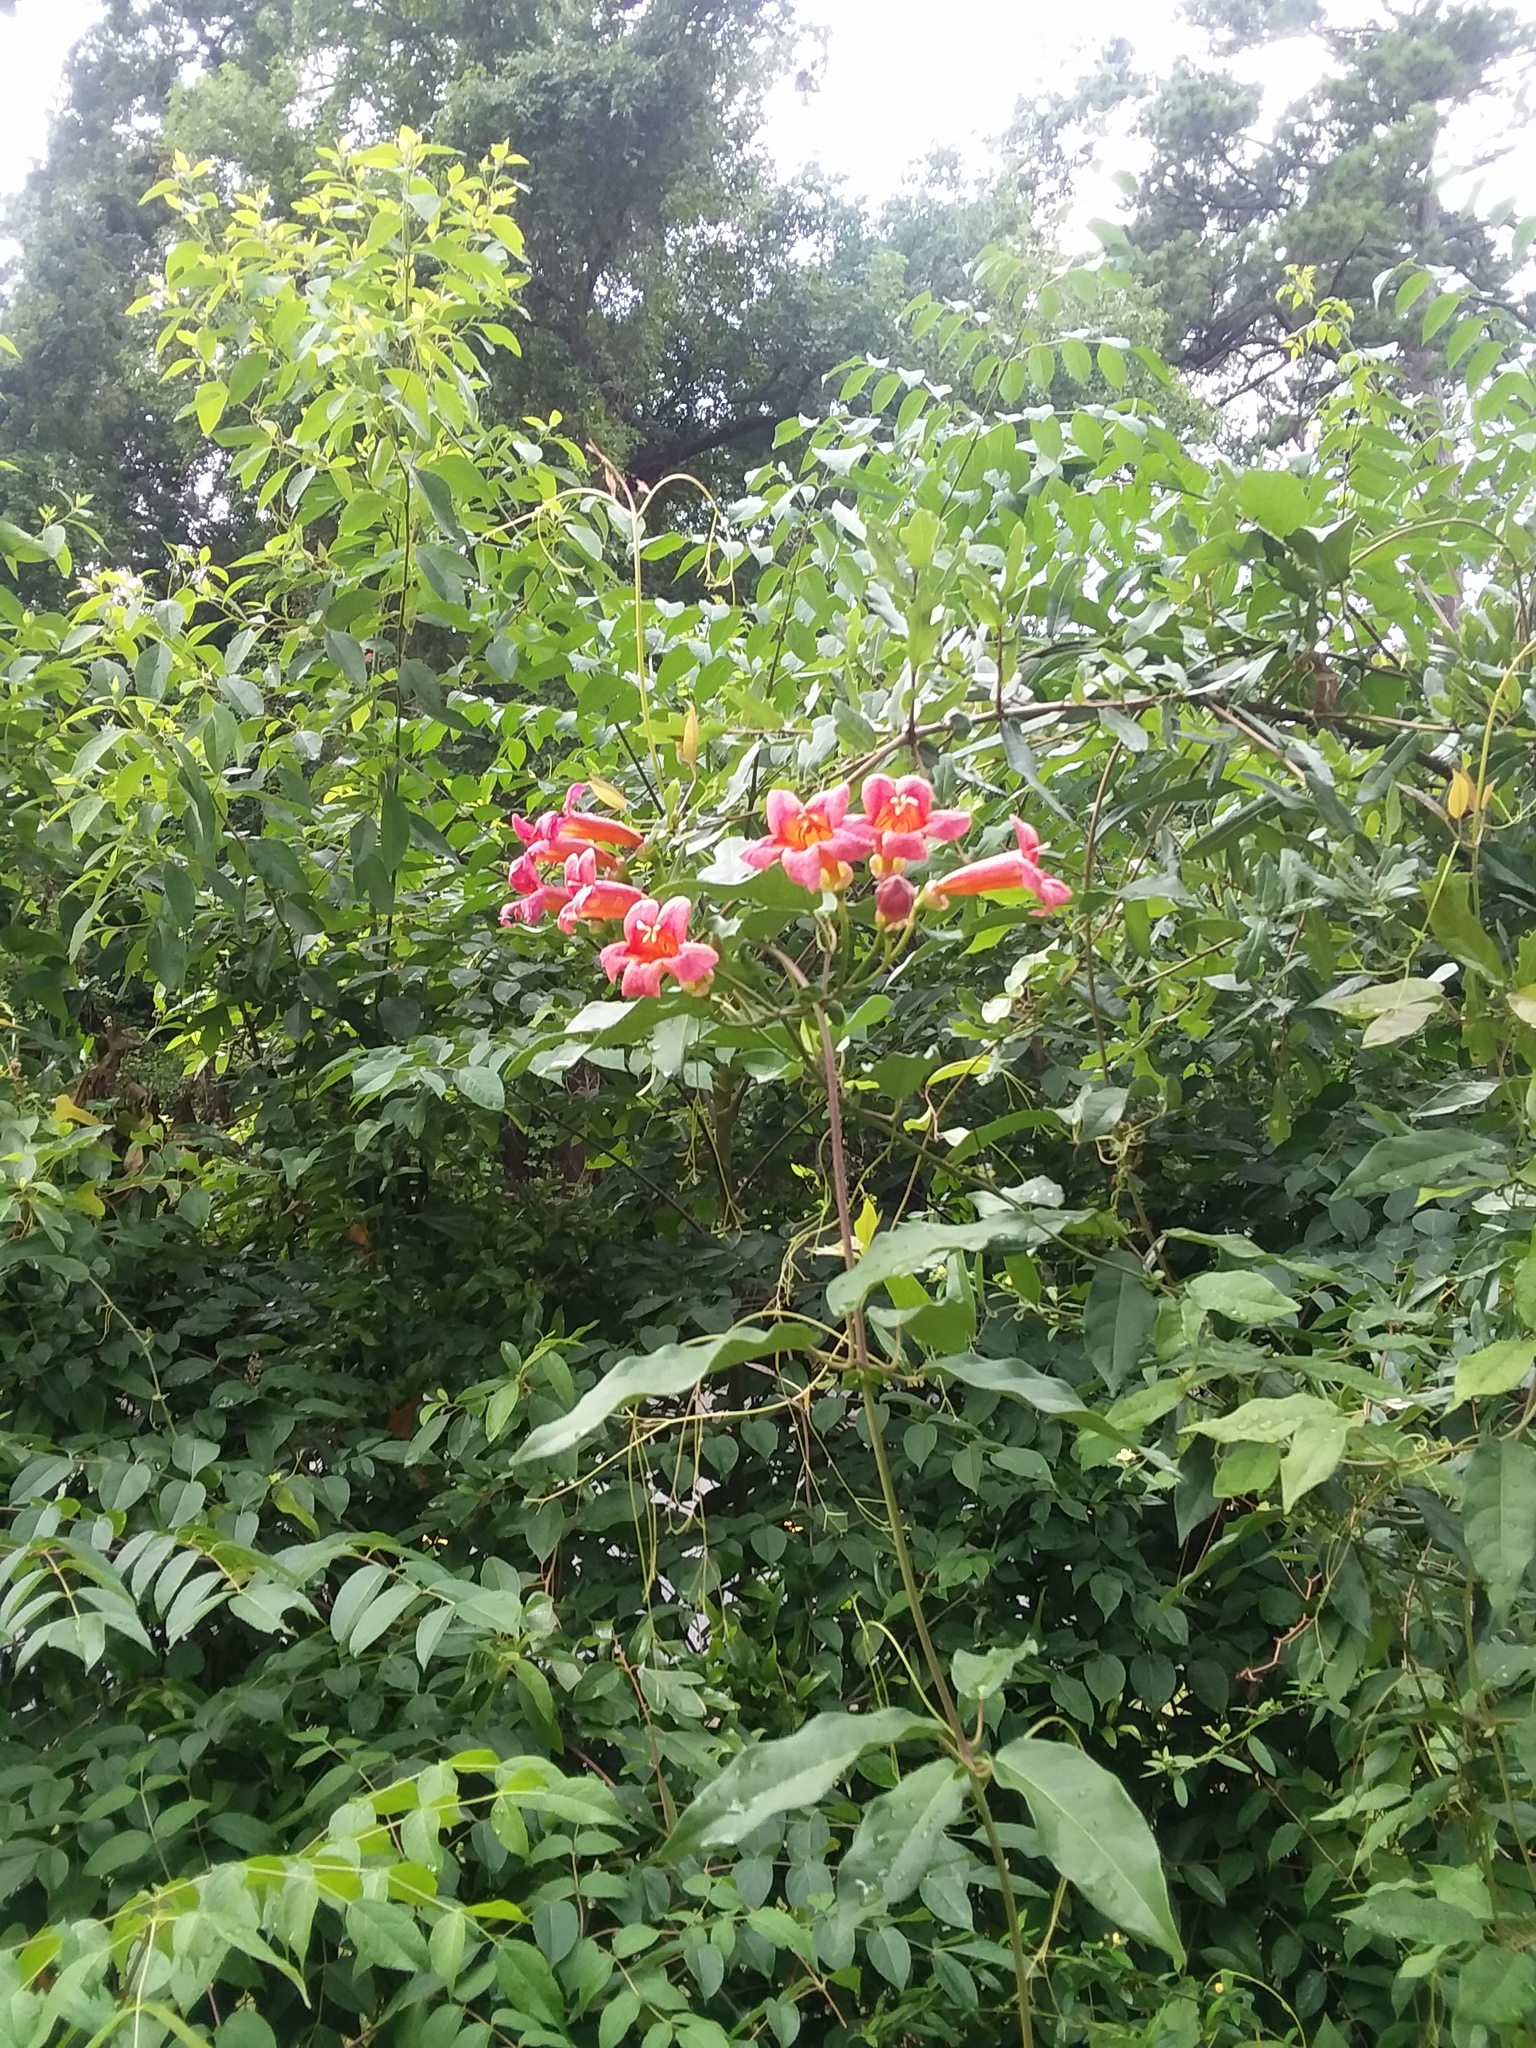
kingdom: Plantae
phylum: Tracheophyta
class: Magnoliopsida
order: Lamiales
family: Bignoniaceae
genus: Bignonia
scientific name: Bignonia capreolata
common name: Crossvine
